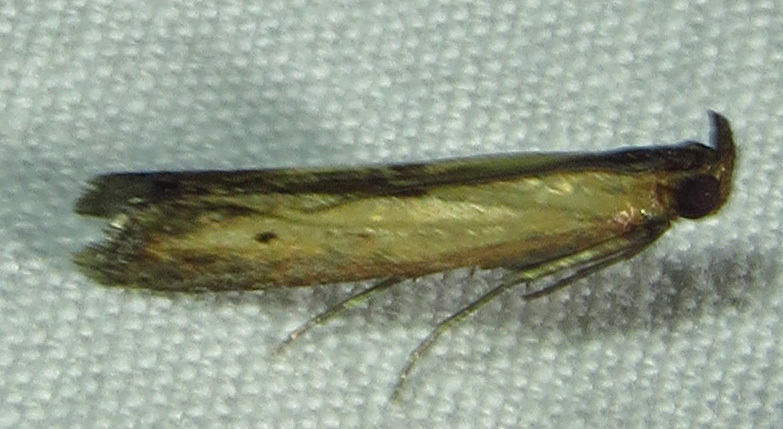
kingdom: Animalia
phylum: Arthropoda
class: Insecta
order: Lepidoptera
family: Pyralidae
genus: Elasmopalpus
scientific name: Elasmopalpus lignosella
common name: Lesser cornstalk borer
